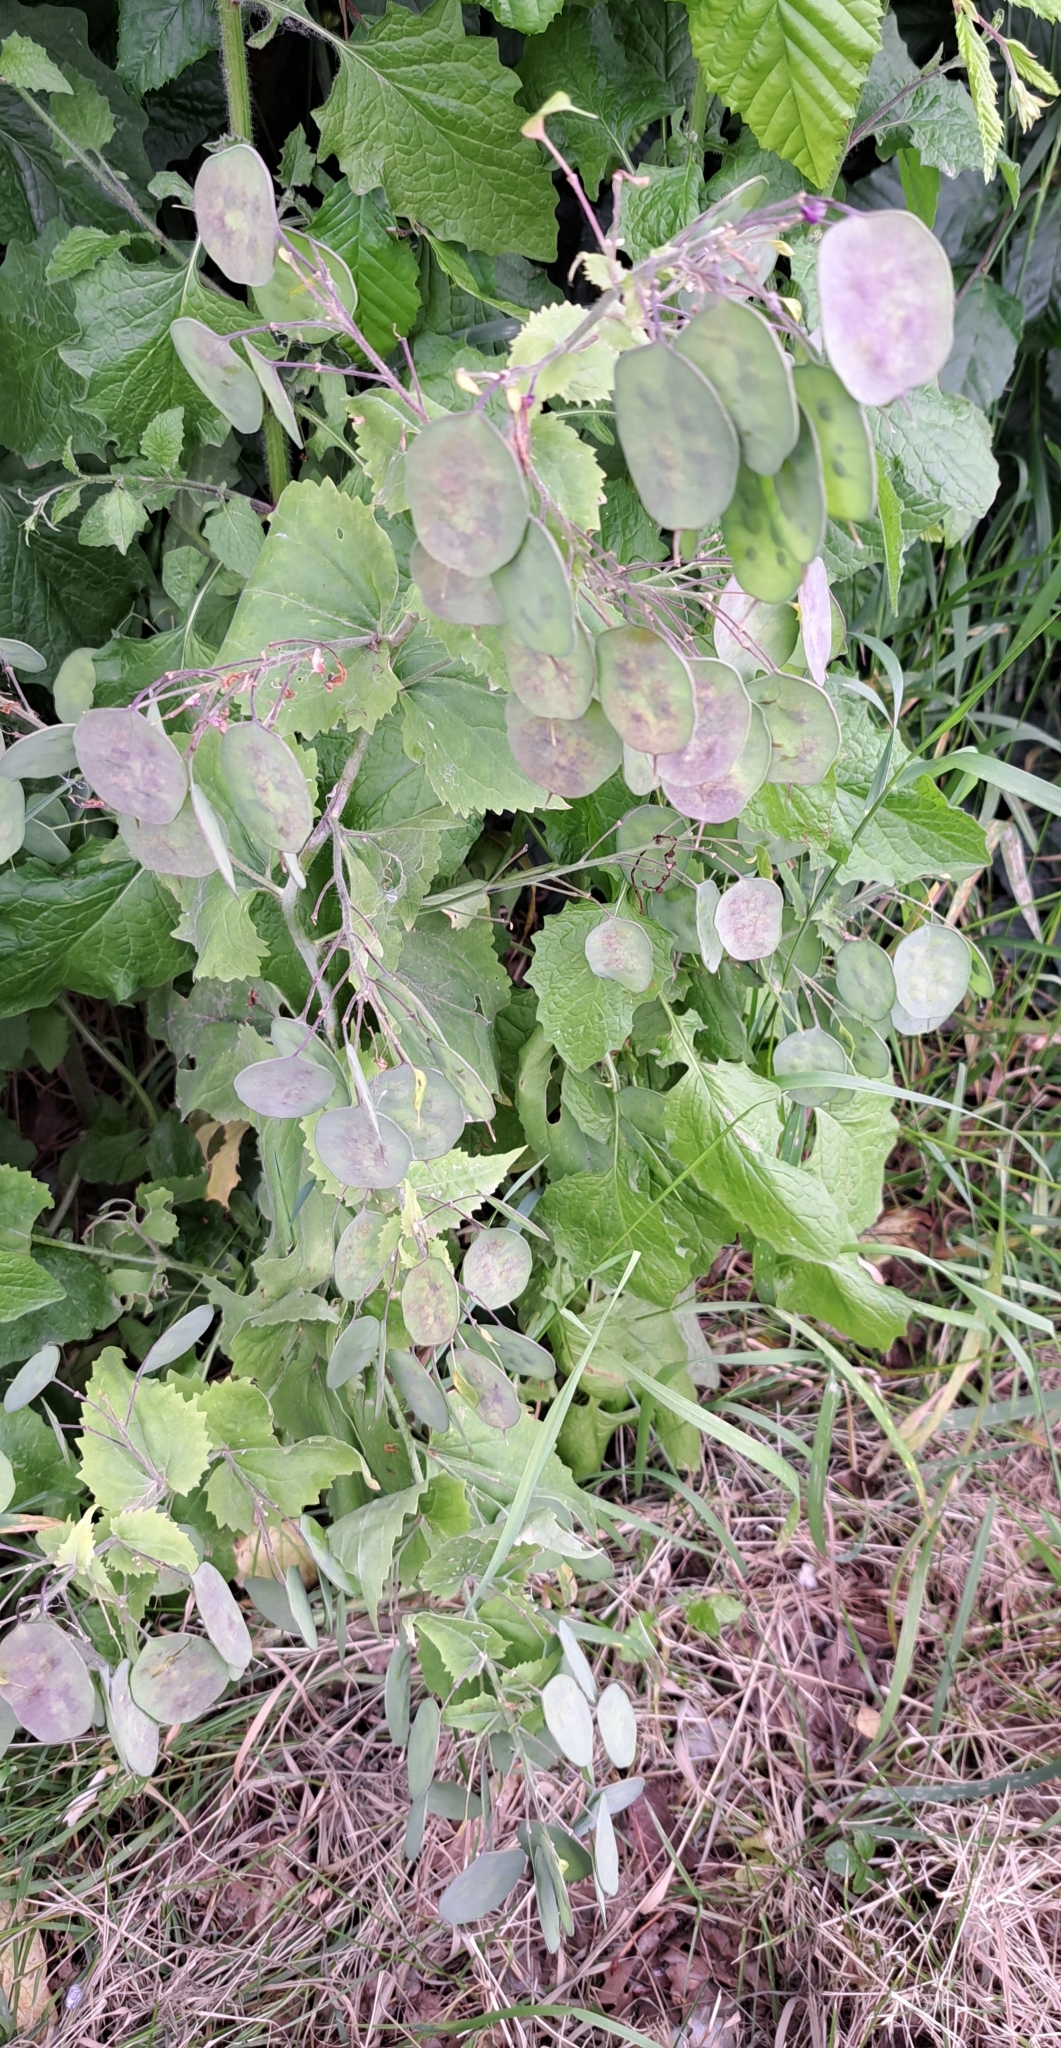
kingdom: Plantae
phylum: Tracheophyta
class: Magnoliopsida
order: Brassicales
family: Brassicaceae
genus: Lunaria
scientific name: Lunaria annua
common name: Honesty
